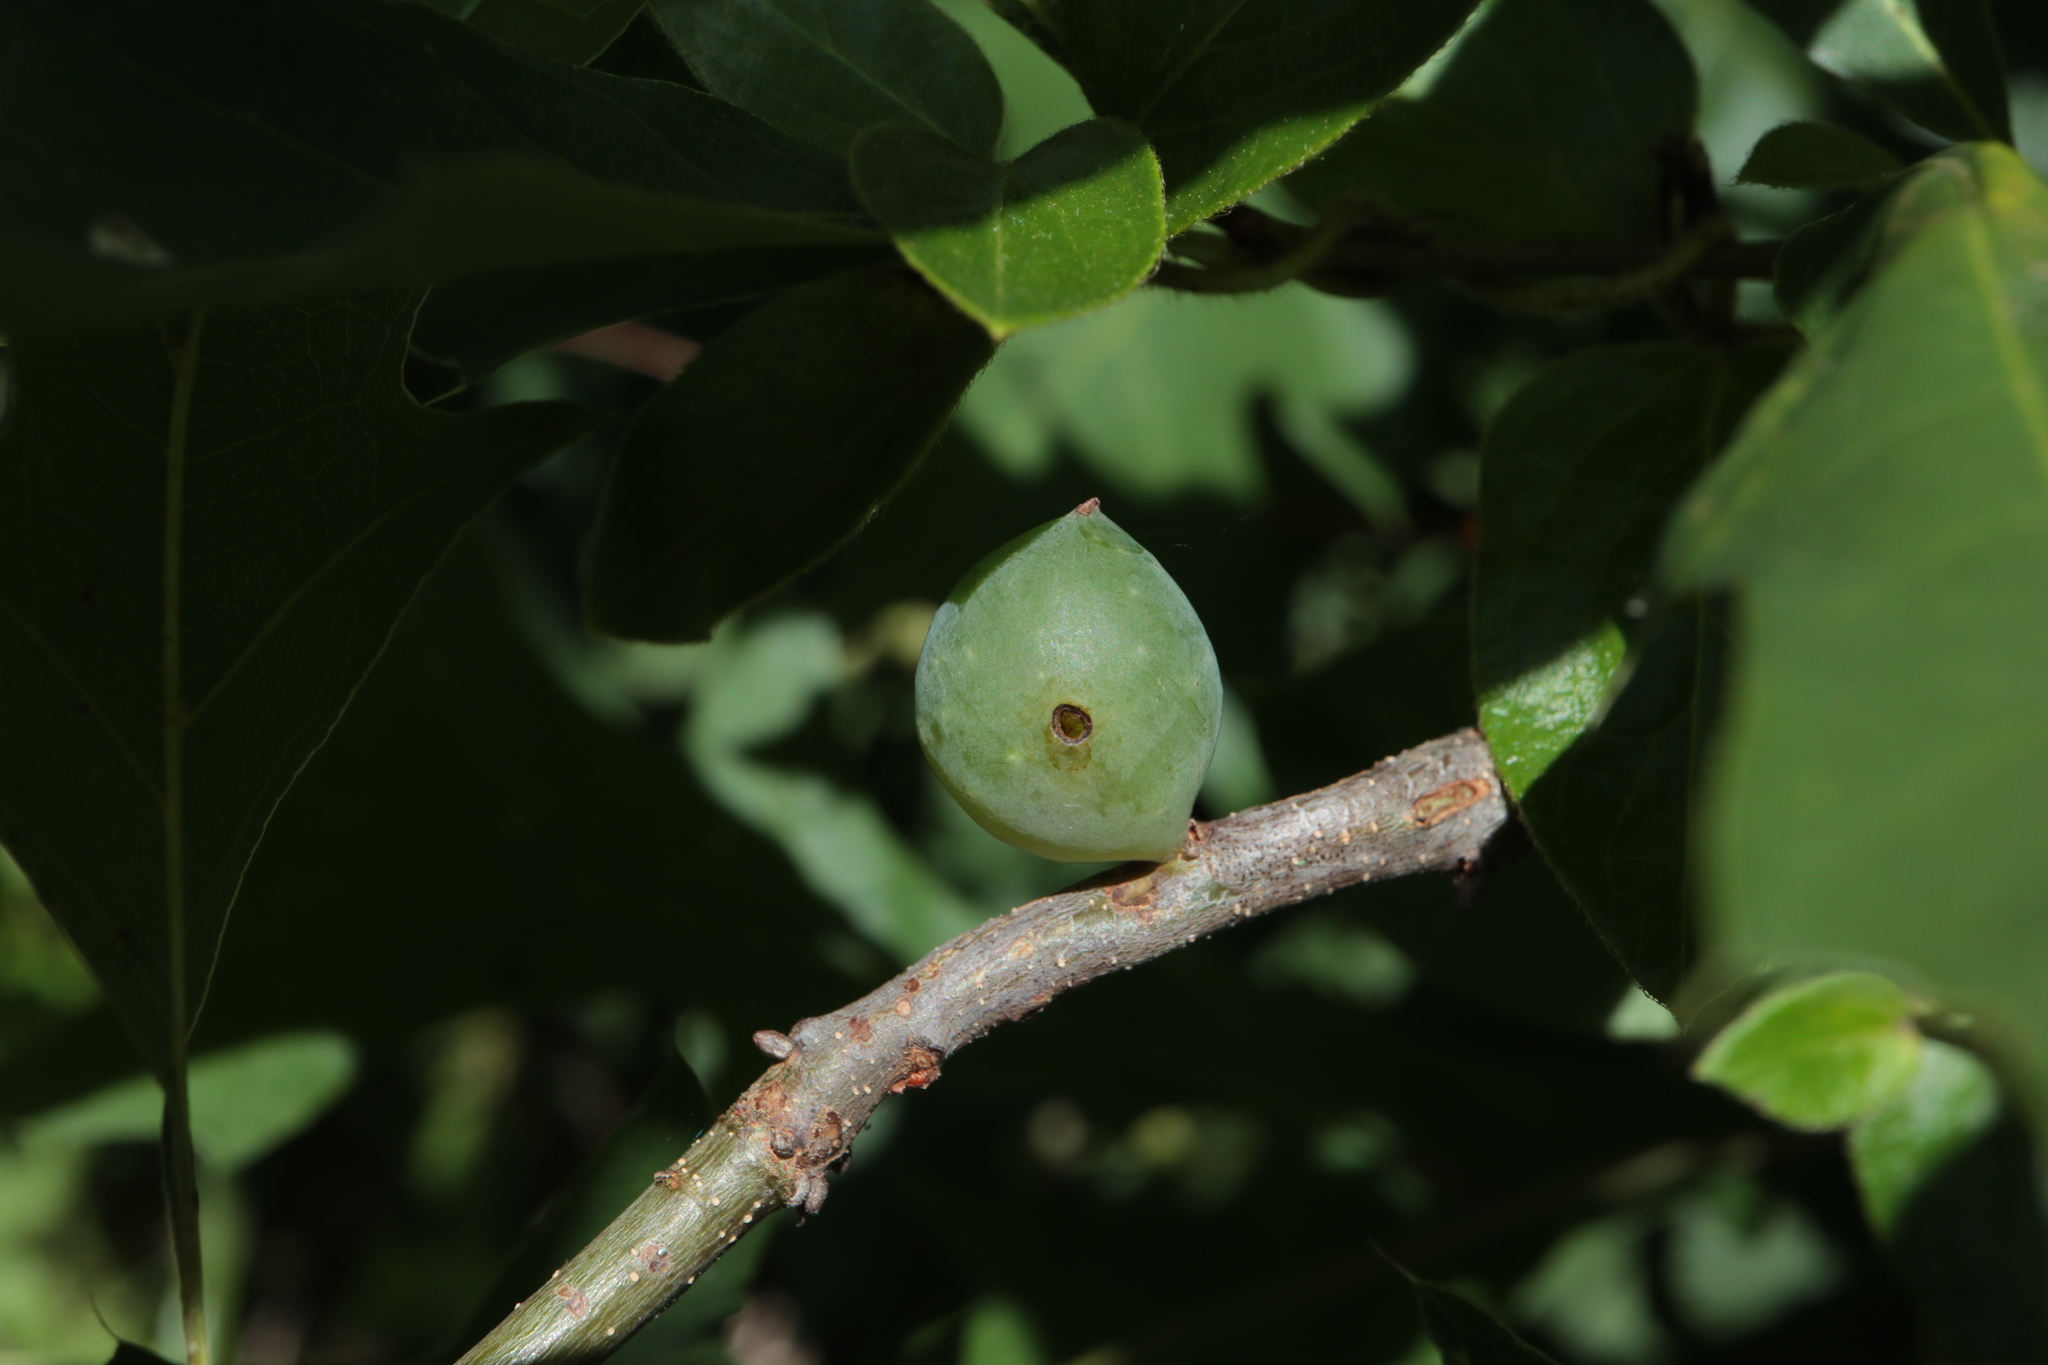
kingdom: Animalia
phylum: Arthropoda
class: Insecta
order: Hymenoptera
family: Cynipidae
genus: Amphibolips
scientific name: Amphibolips
